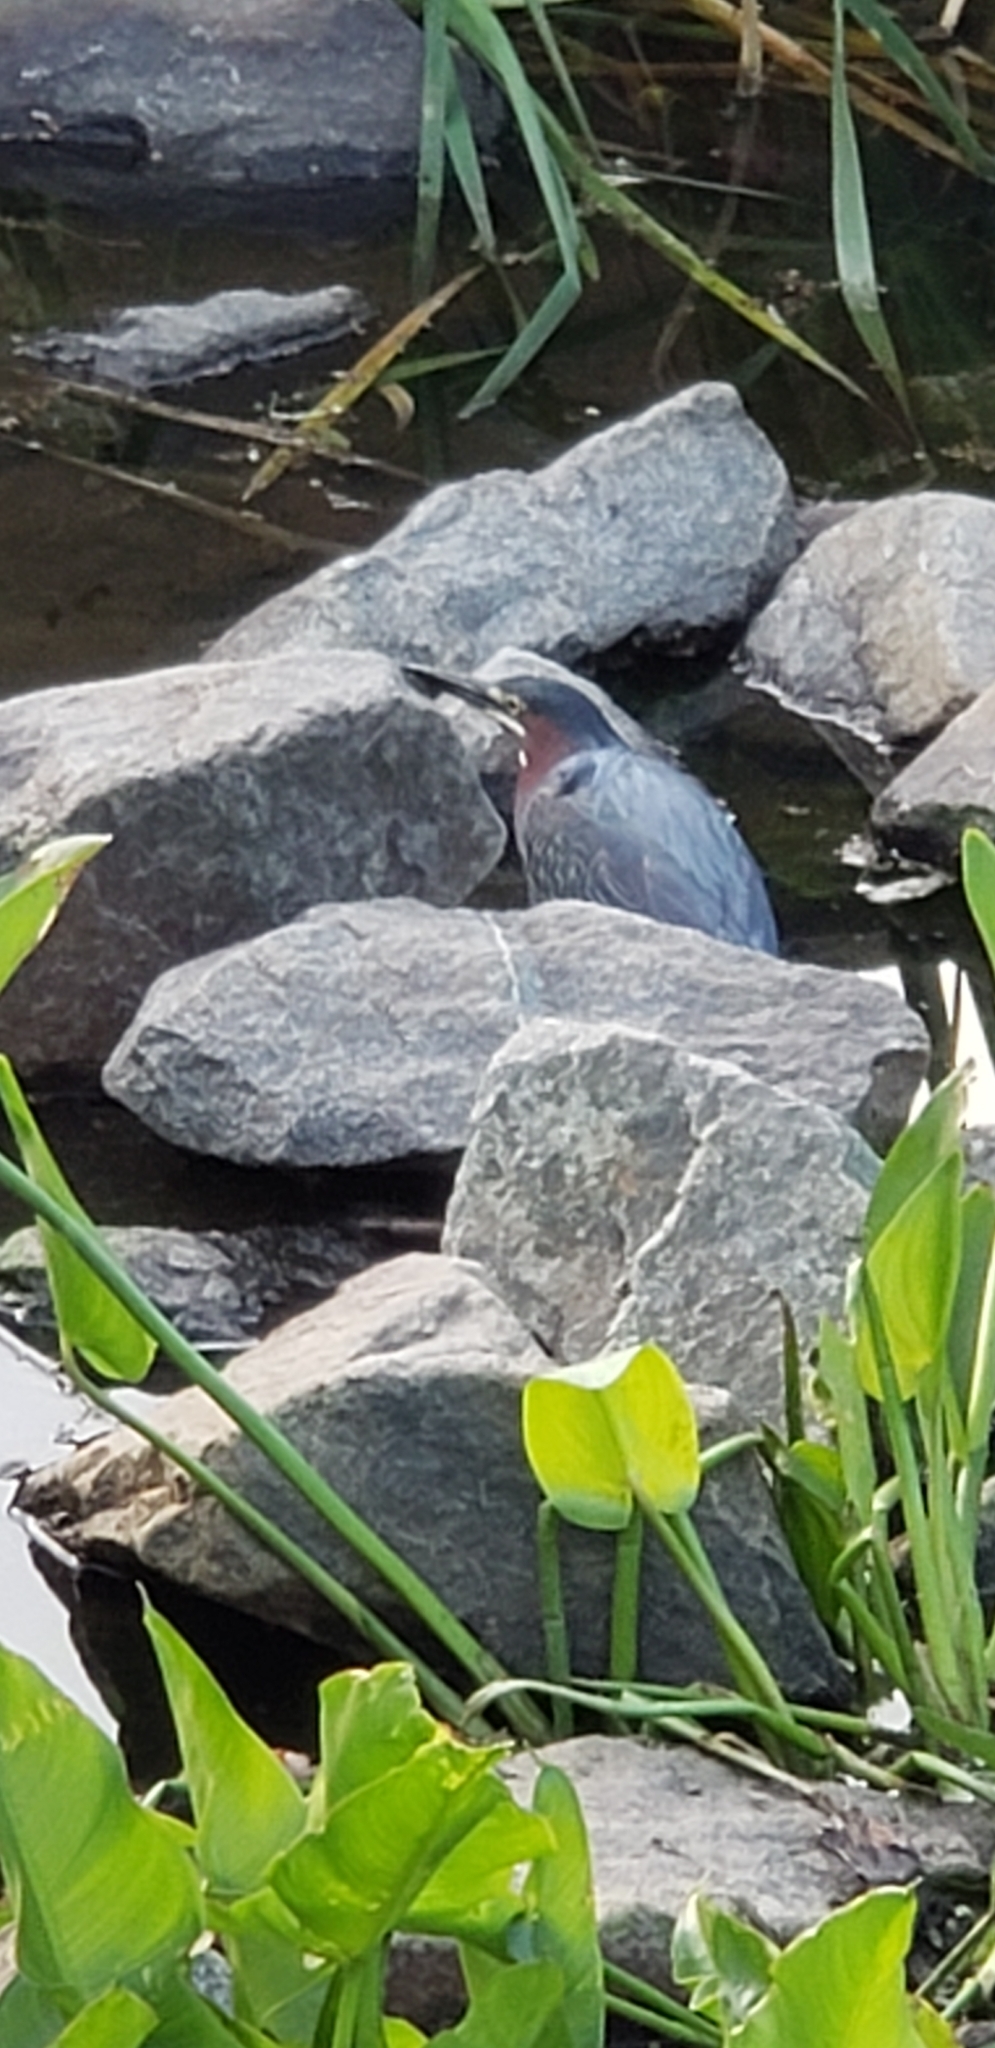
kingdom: Animalia
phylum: Chordata
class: Aves
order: Pelecaniformes
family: Ardeidae
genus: Butorides
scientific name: Butorides virescens
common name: Green heron
